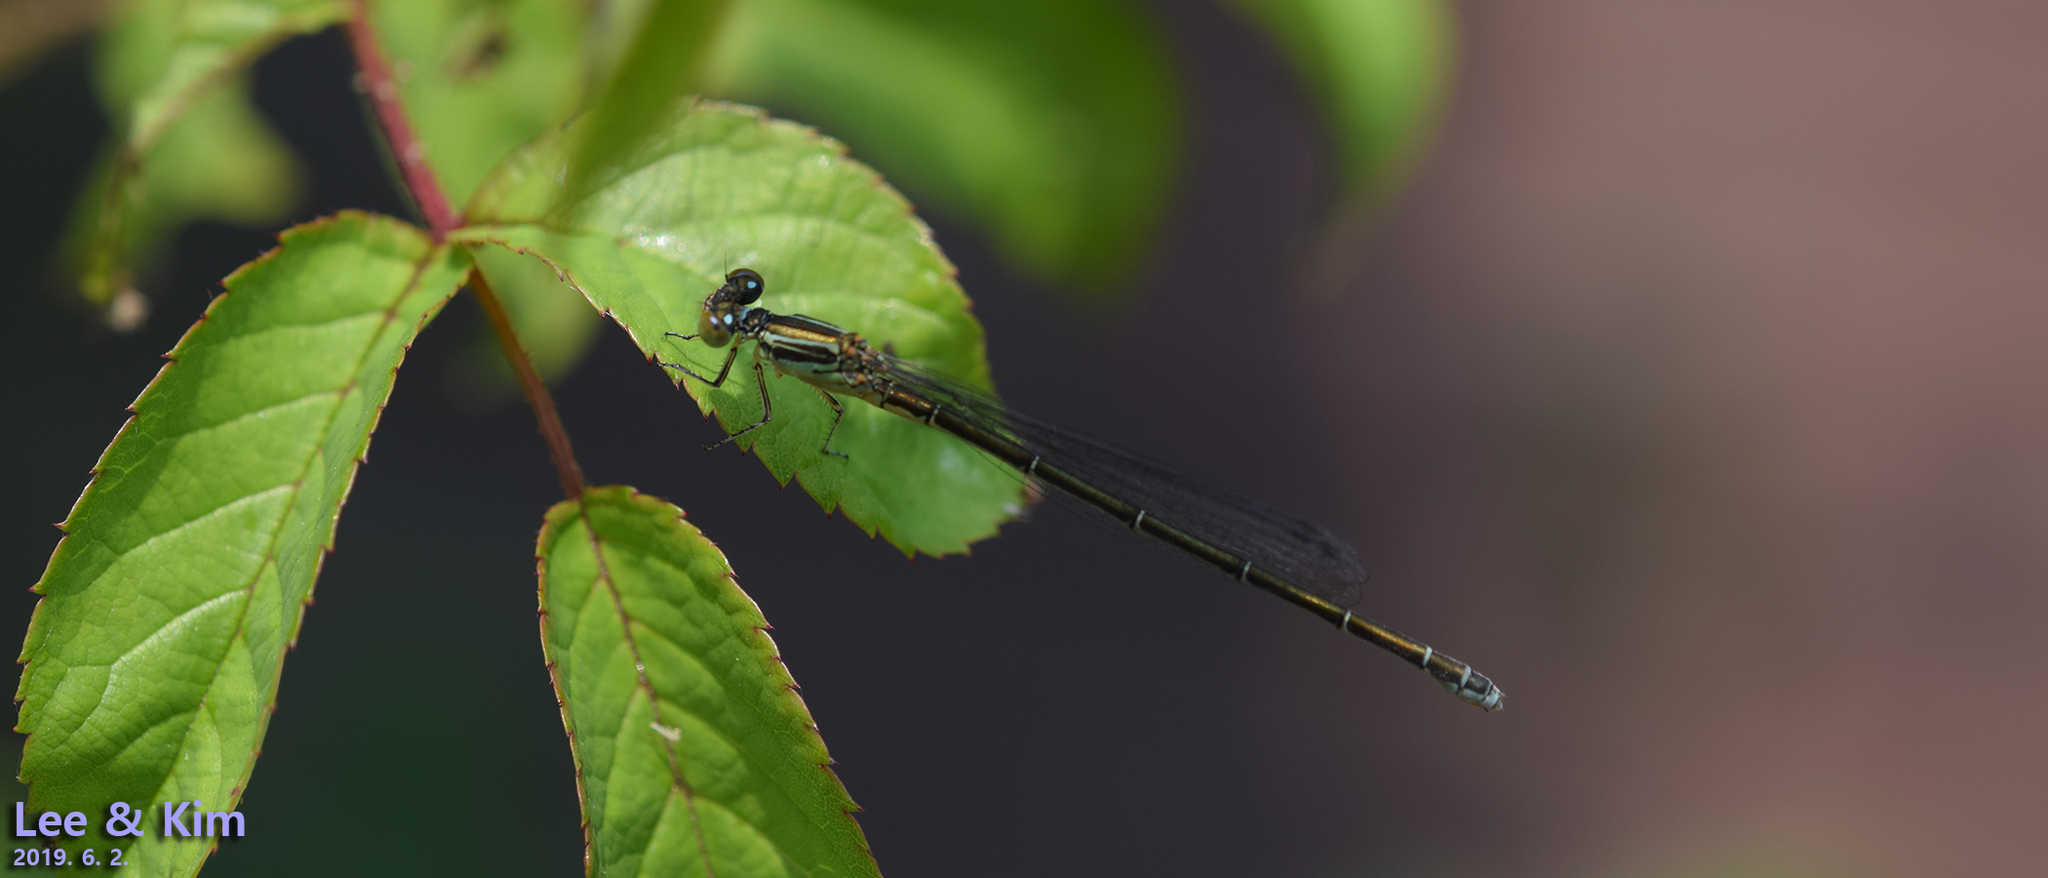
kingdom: Animalia
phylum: Arthropoda
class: Insecta
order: Odonata
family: Coenagrionidae
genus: Paracercion
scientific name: Paracercion calamorum
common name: Dusky lilysquatter
